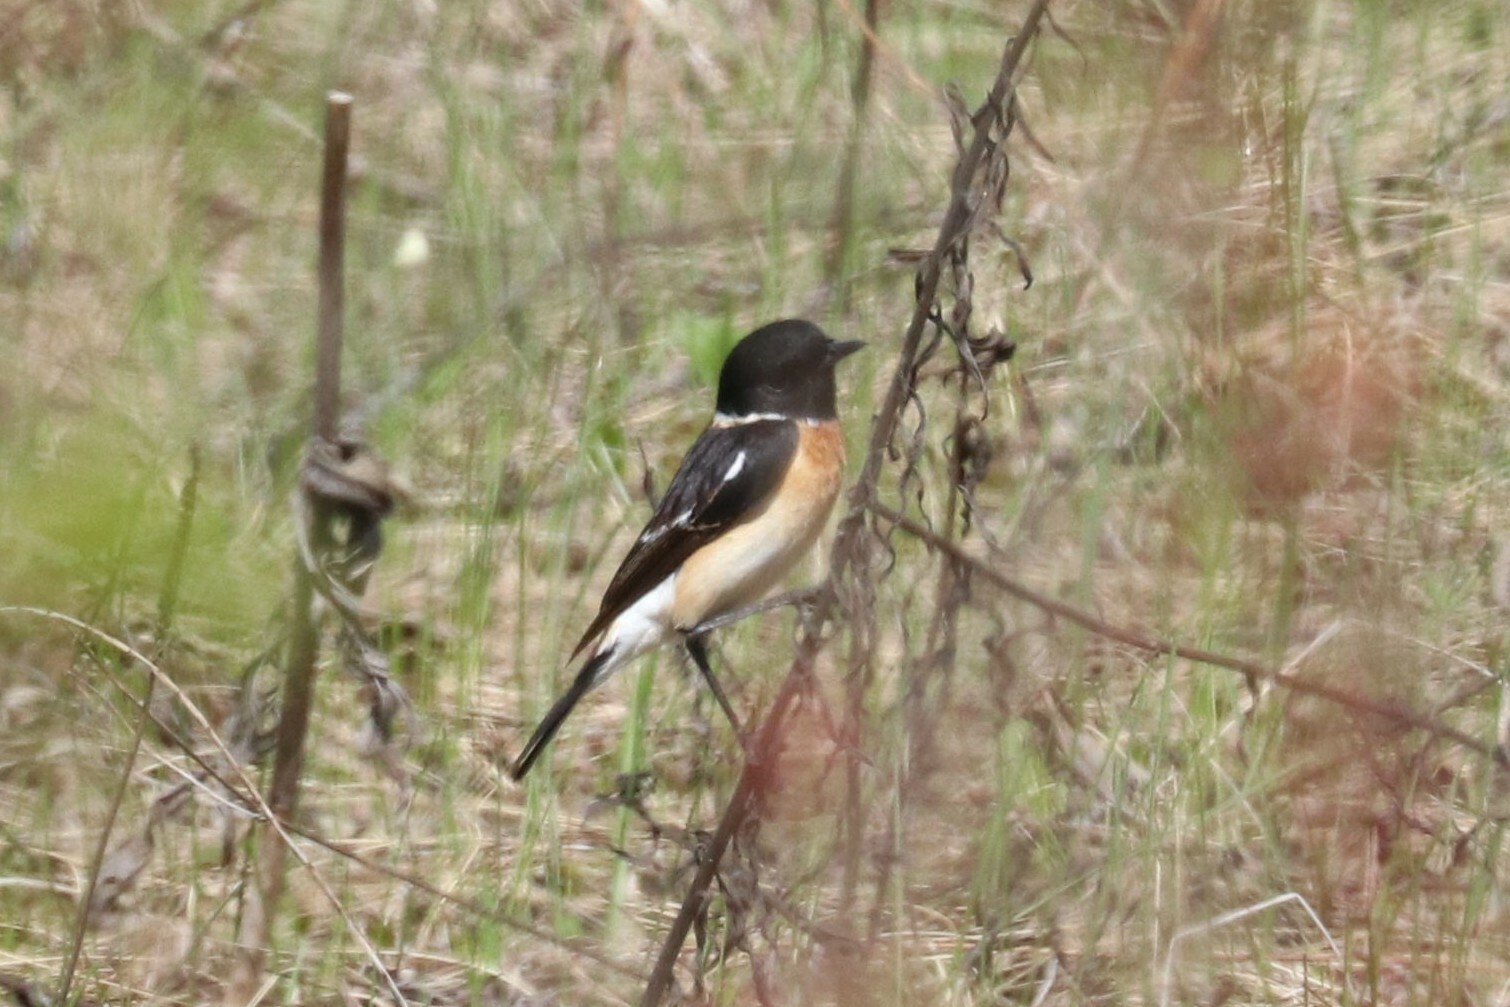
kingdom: Animalia
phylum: Chordata
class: Aves
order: Passeriformes
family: Muscicapidae
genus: Saxicola
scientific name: Saxicola maurus
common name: Siberian stonechat
